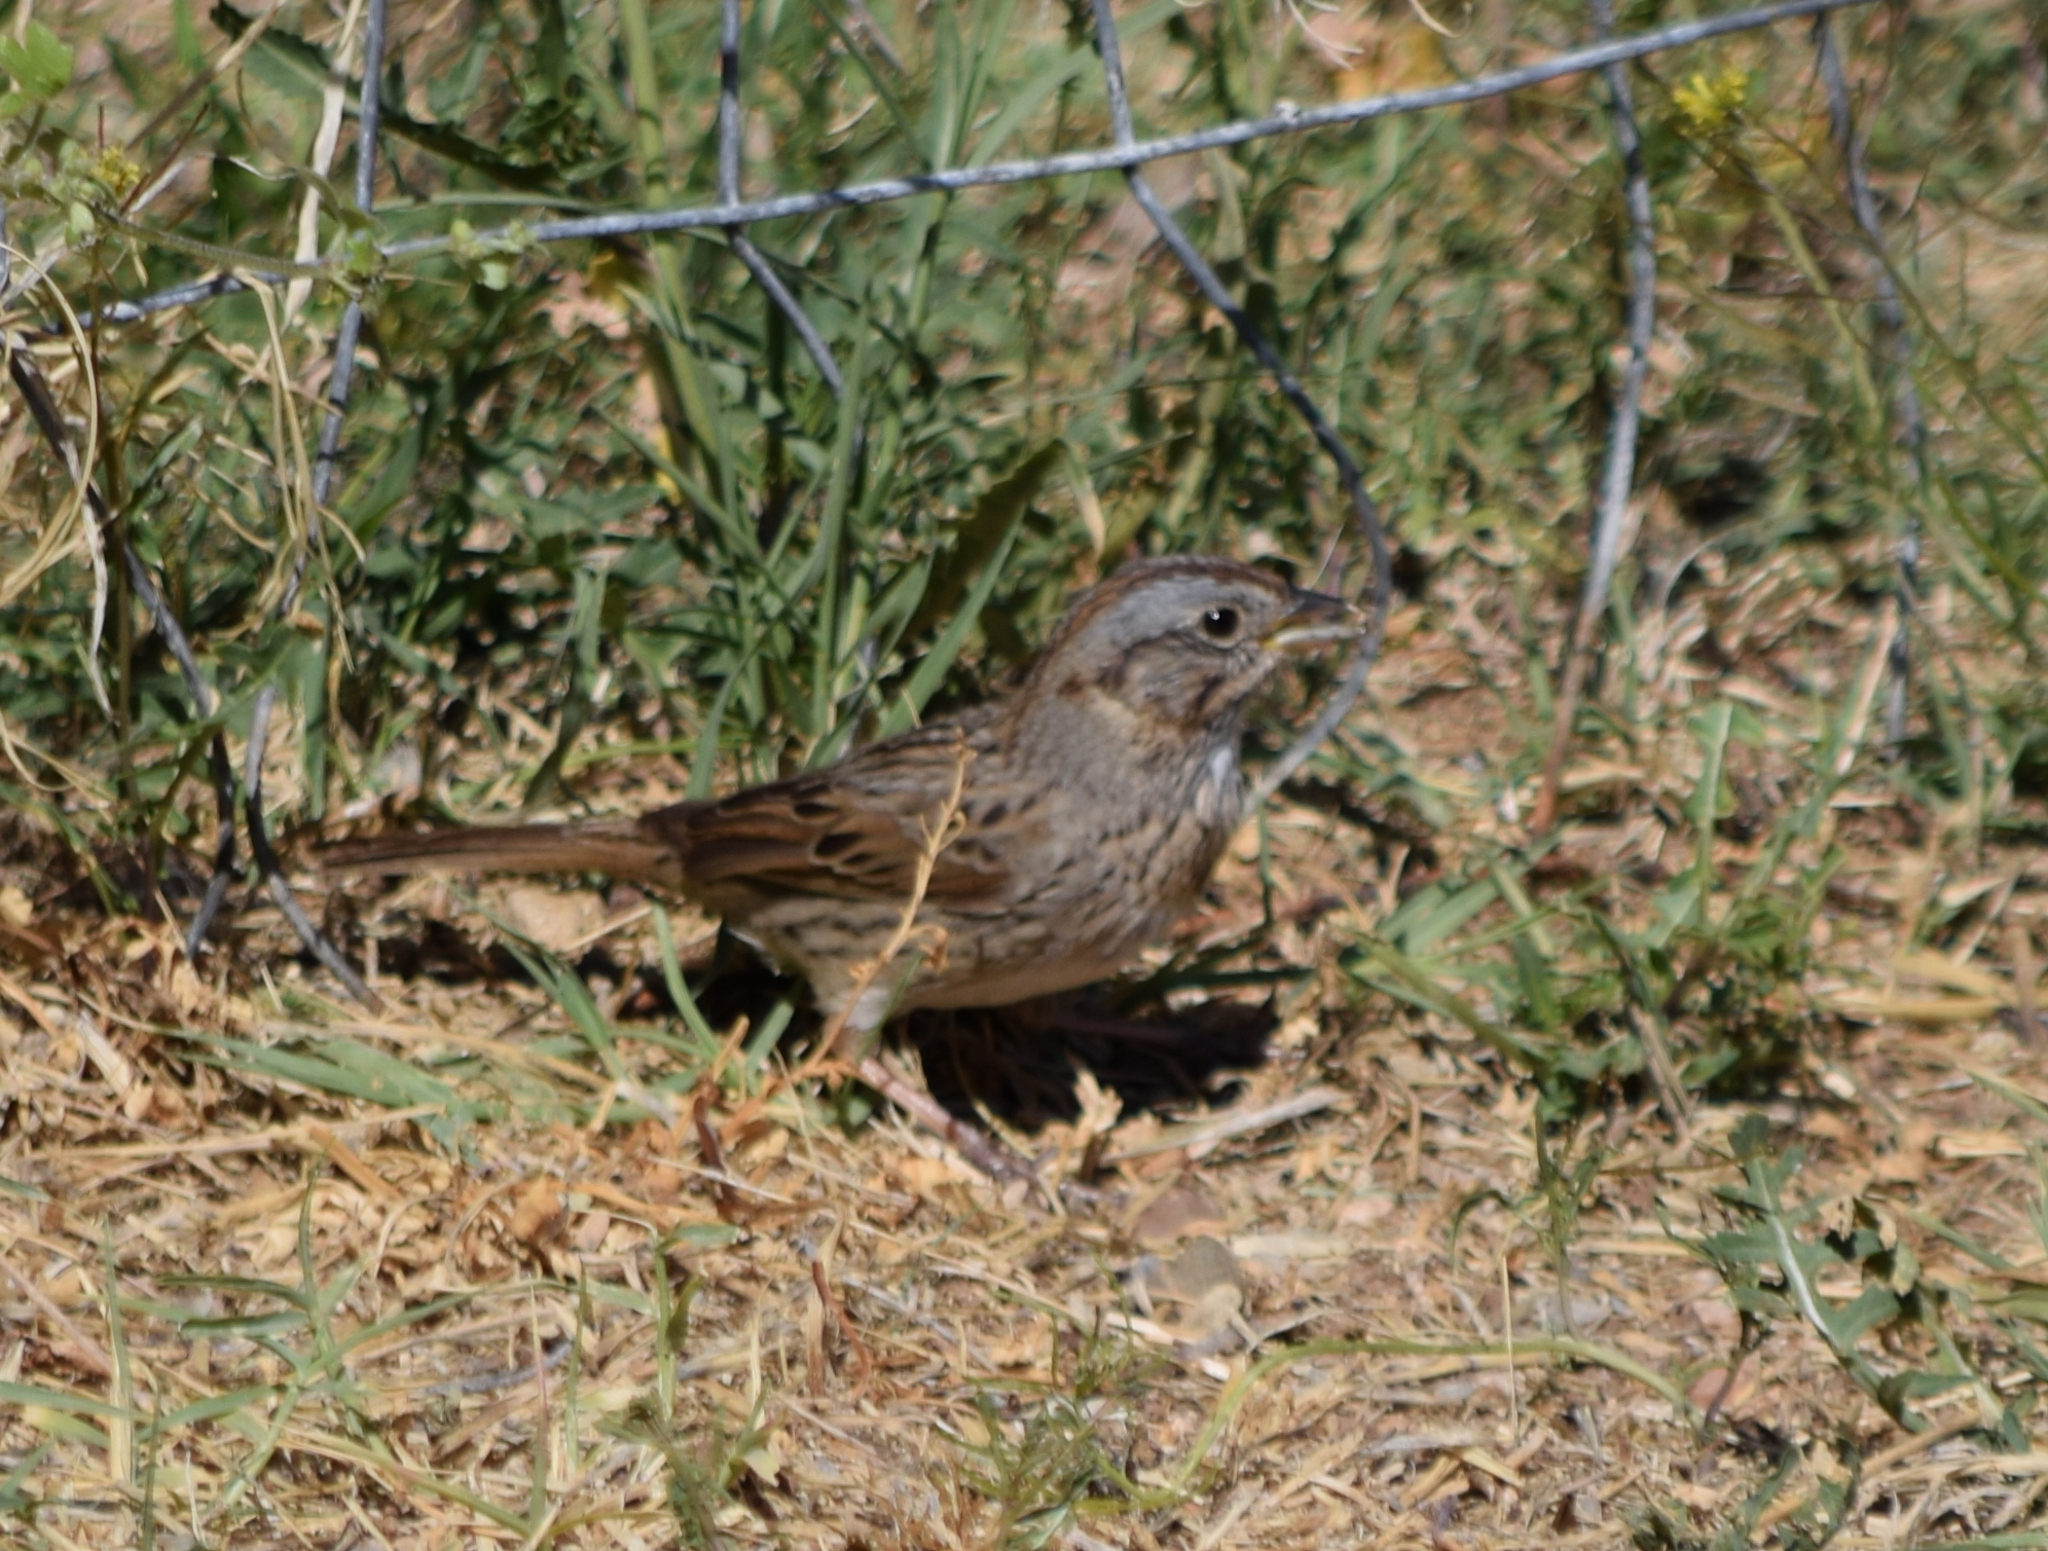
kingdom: Animalia
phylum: Chordata
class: Aves
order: Passeriformes
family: Passerellidae
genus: Melospiza
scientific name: Melospiza lincolnii
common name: Lincoln's sparrow
